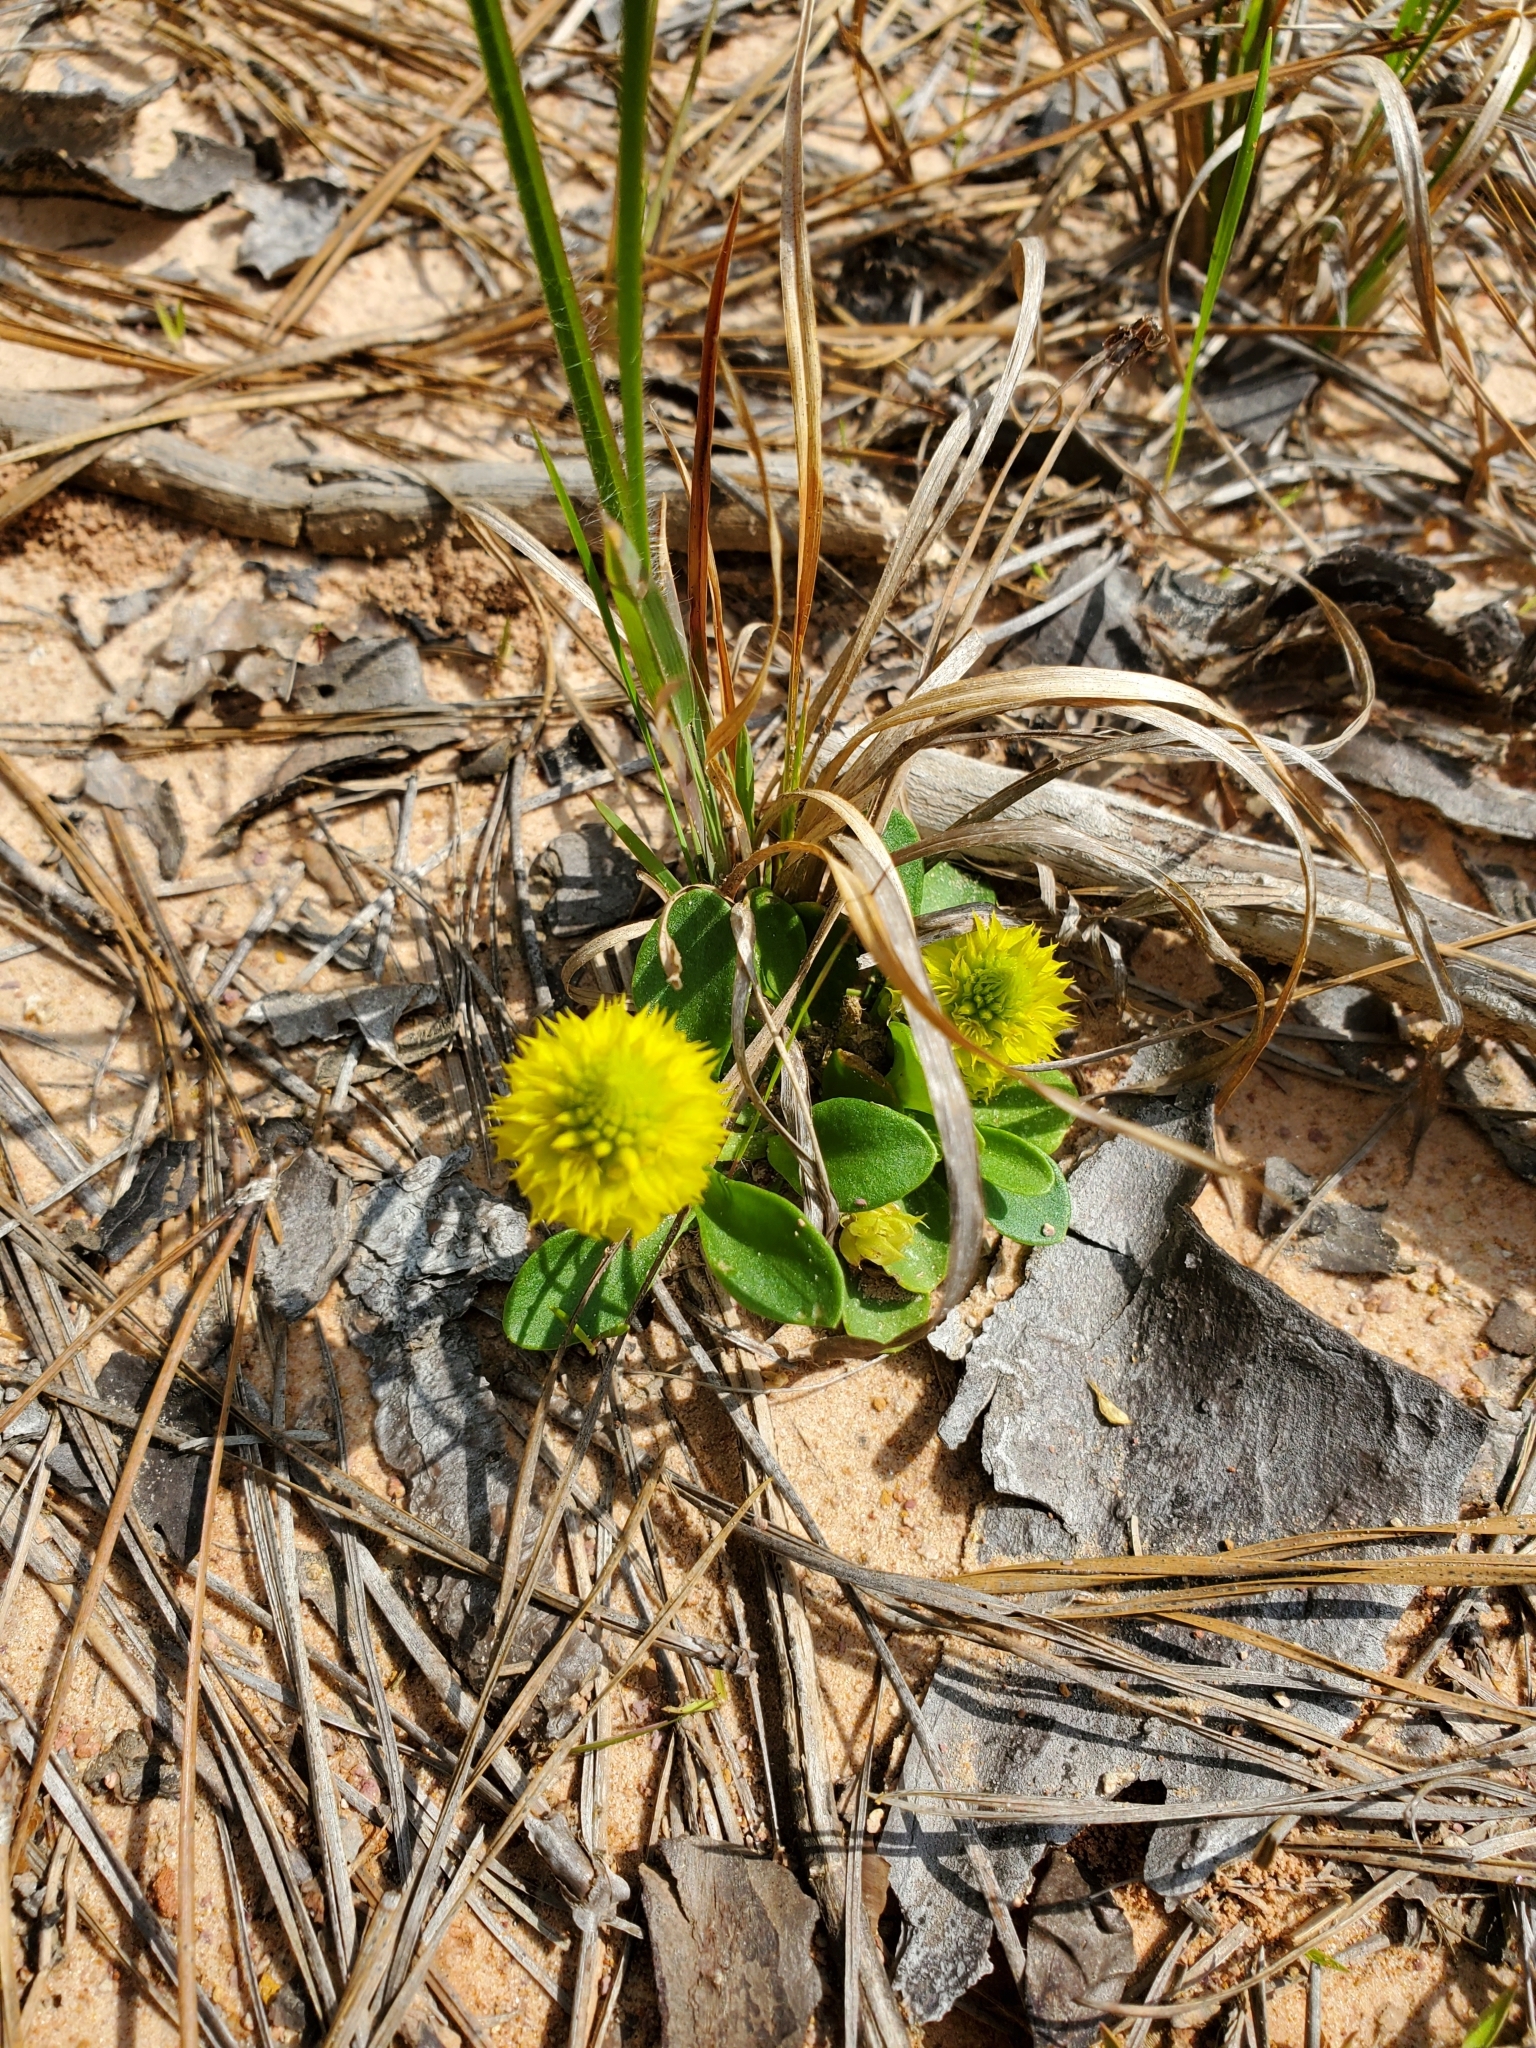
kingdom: Plantae
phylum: Tracheophyta
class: Magnoliopsida
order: Fabales
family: Polygalaceae
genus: Polygala
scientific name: Polygala nana
